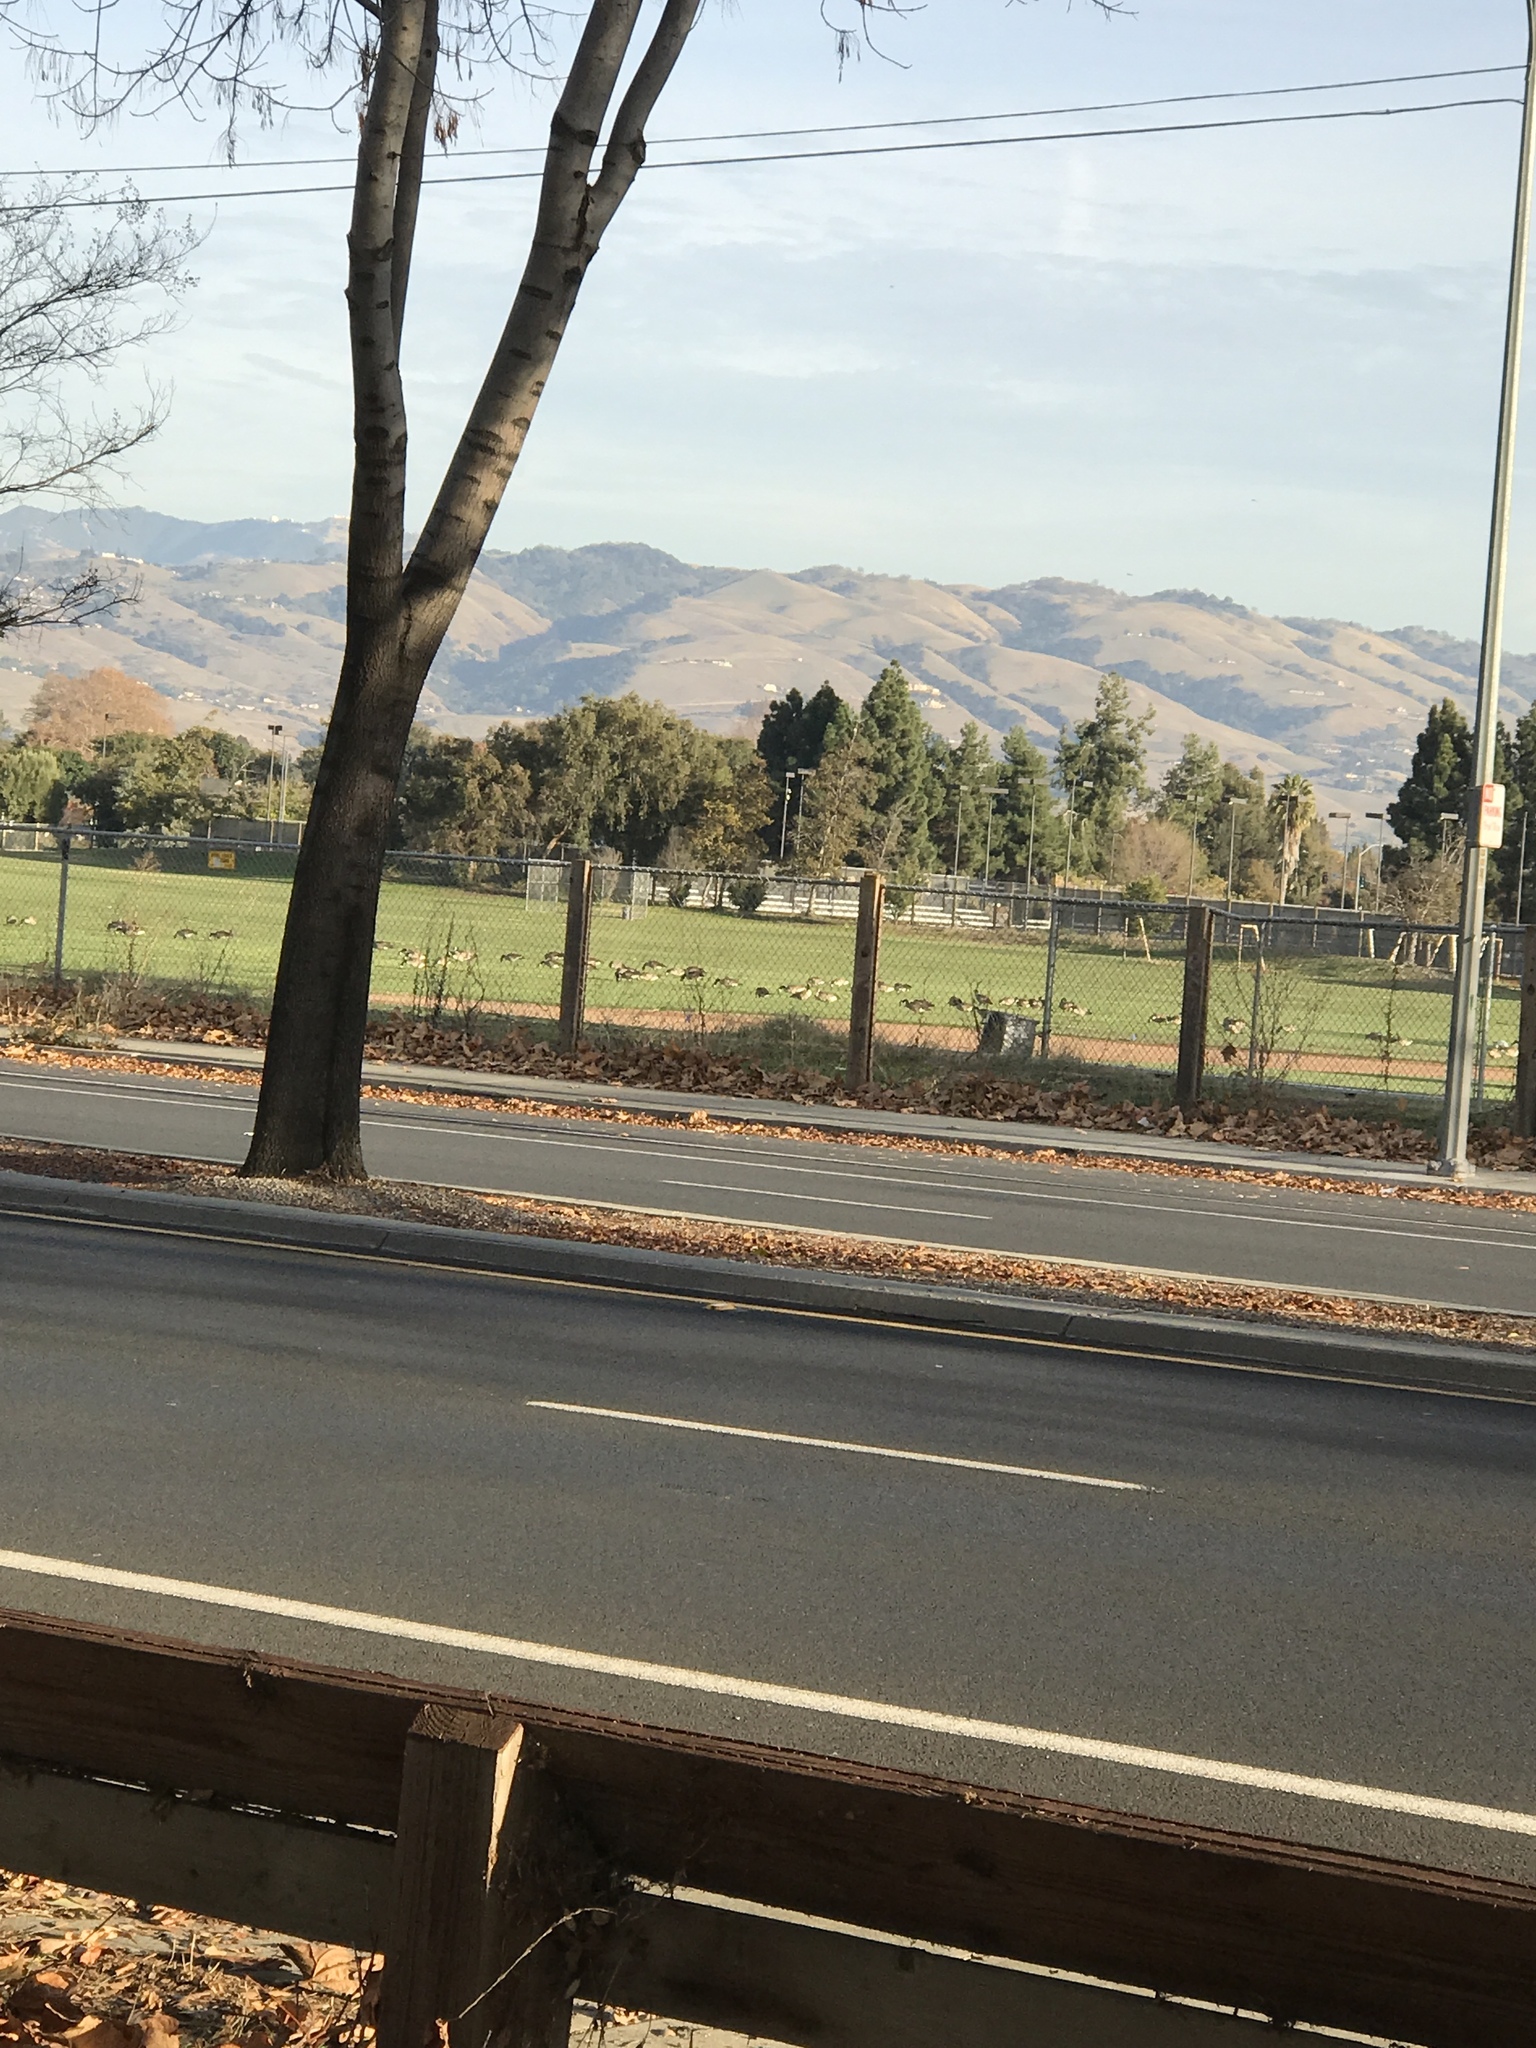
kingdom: Animalia
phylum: Chordata
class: Aves
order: Anseriformes
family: Anatidae
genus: Branta
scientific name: Branta canadensis
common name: Canada goose
